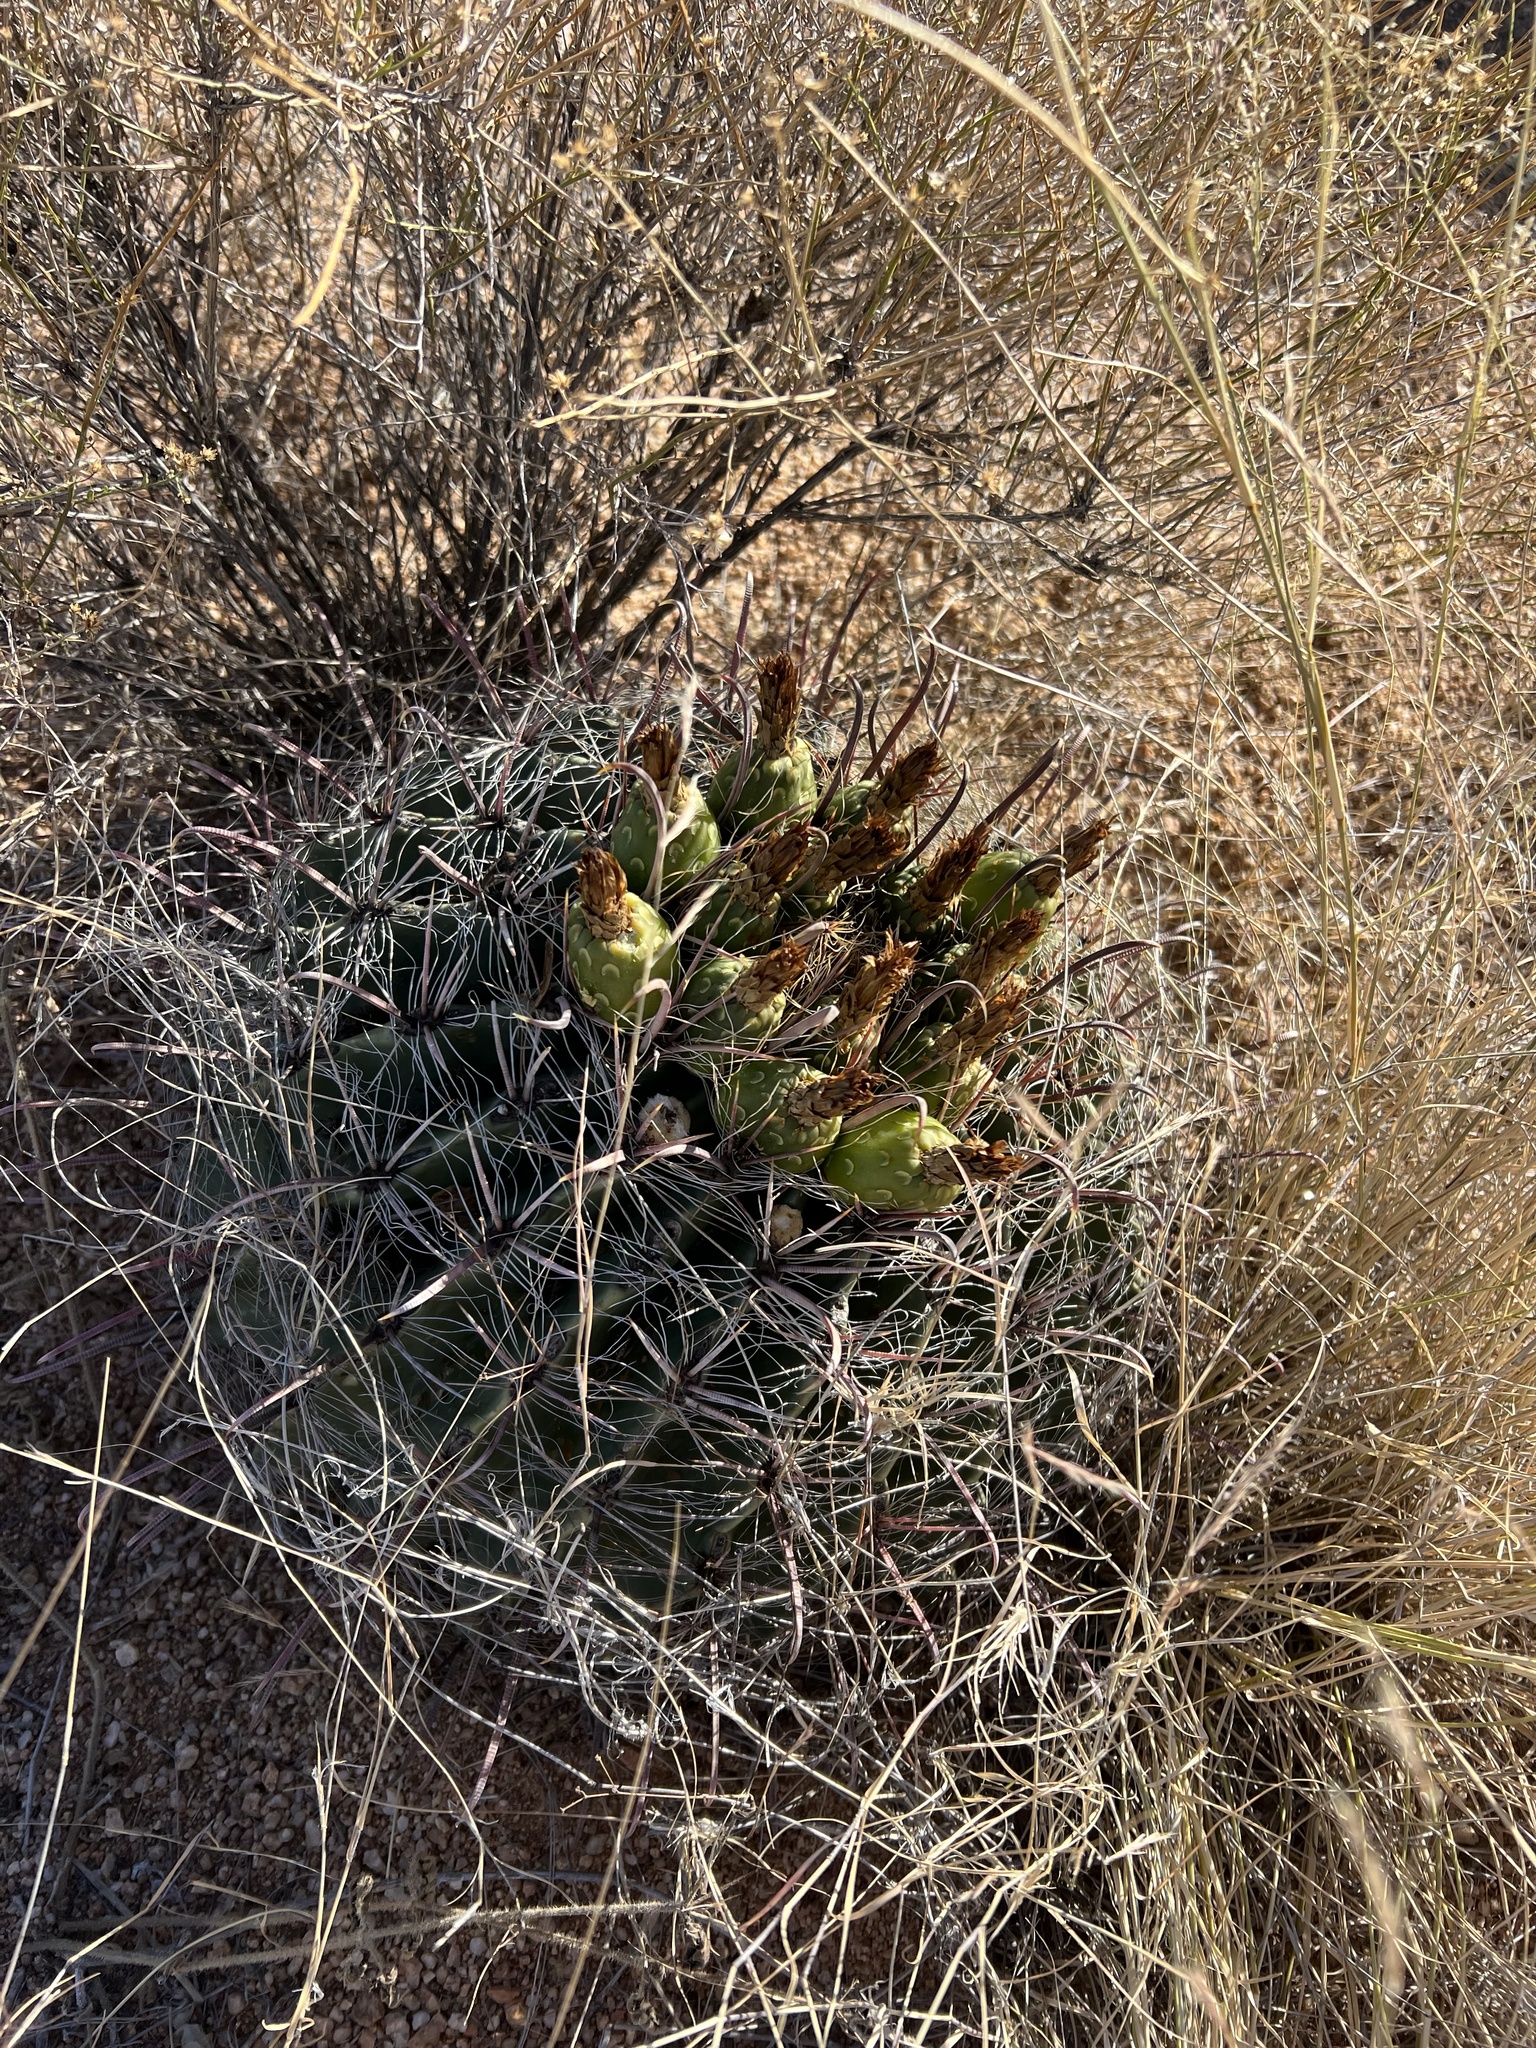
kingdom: Plantae
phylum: Tracheophyta
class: Magnoliopsida
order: Caryophyllales
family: Cactaceae
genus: Ferocactus
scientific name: Ferocactus wislizeni
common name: Candy barrel cactus
